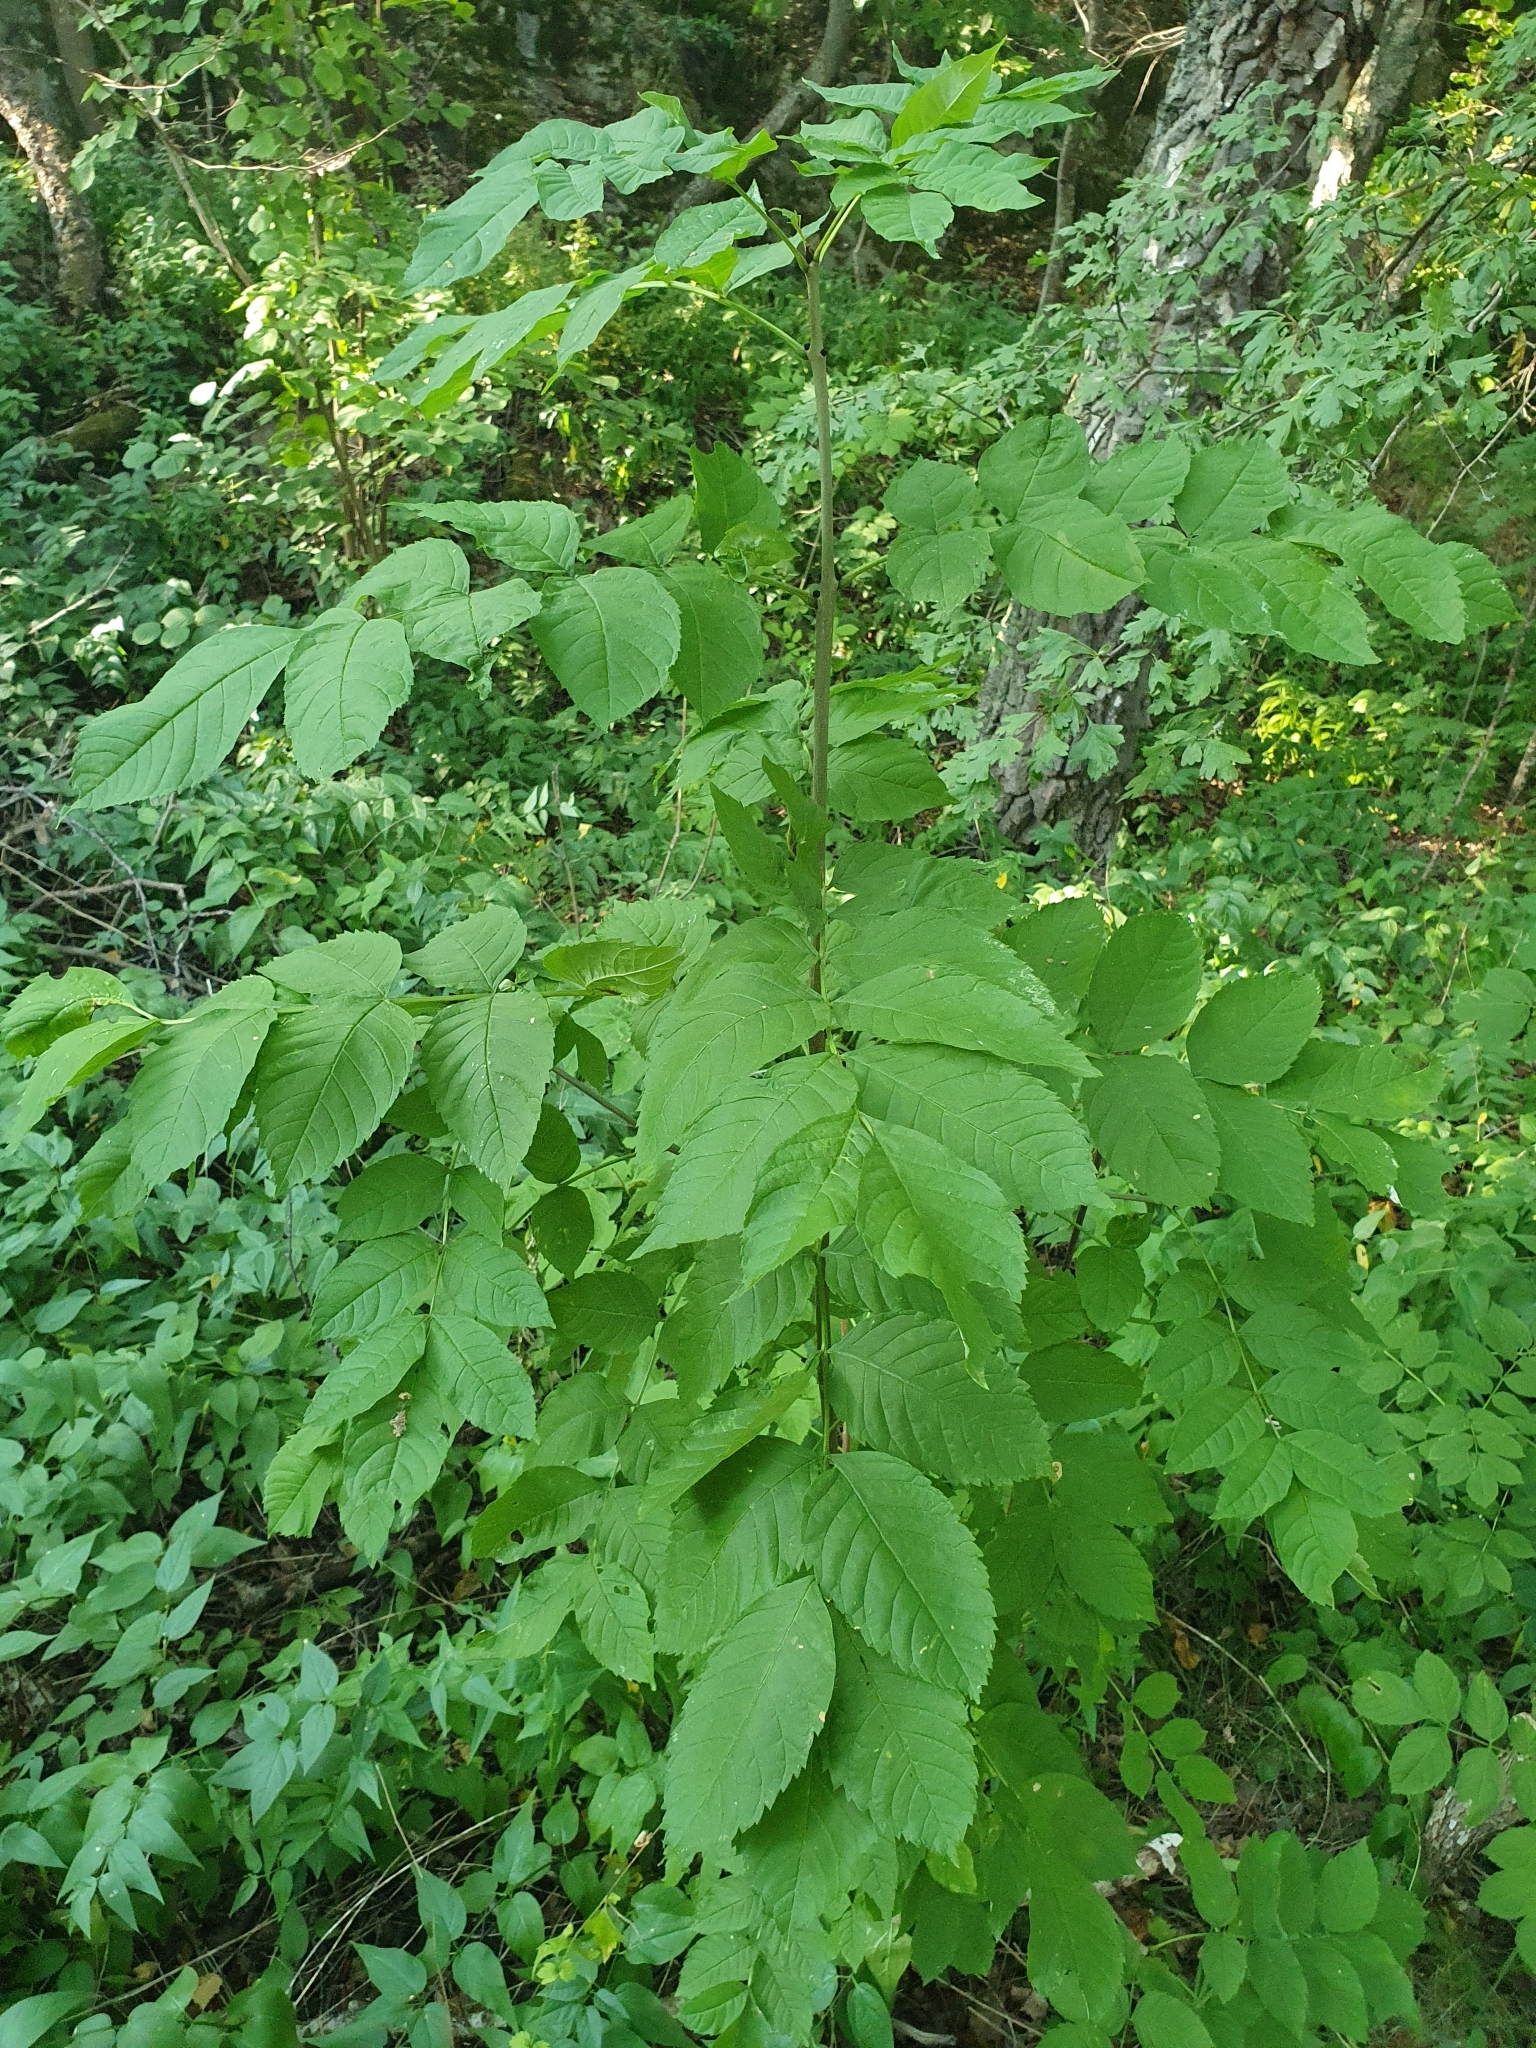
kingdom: Plantae
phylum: Tracheophyta
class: Magnoliopsida
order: Lamiales
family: Oleaceae
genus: Fraxinus
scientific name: Fraxinus excelsior
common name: European ash
